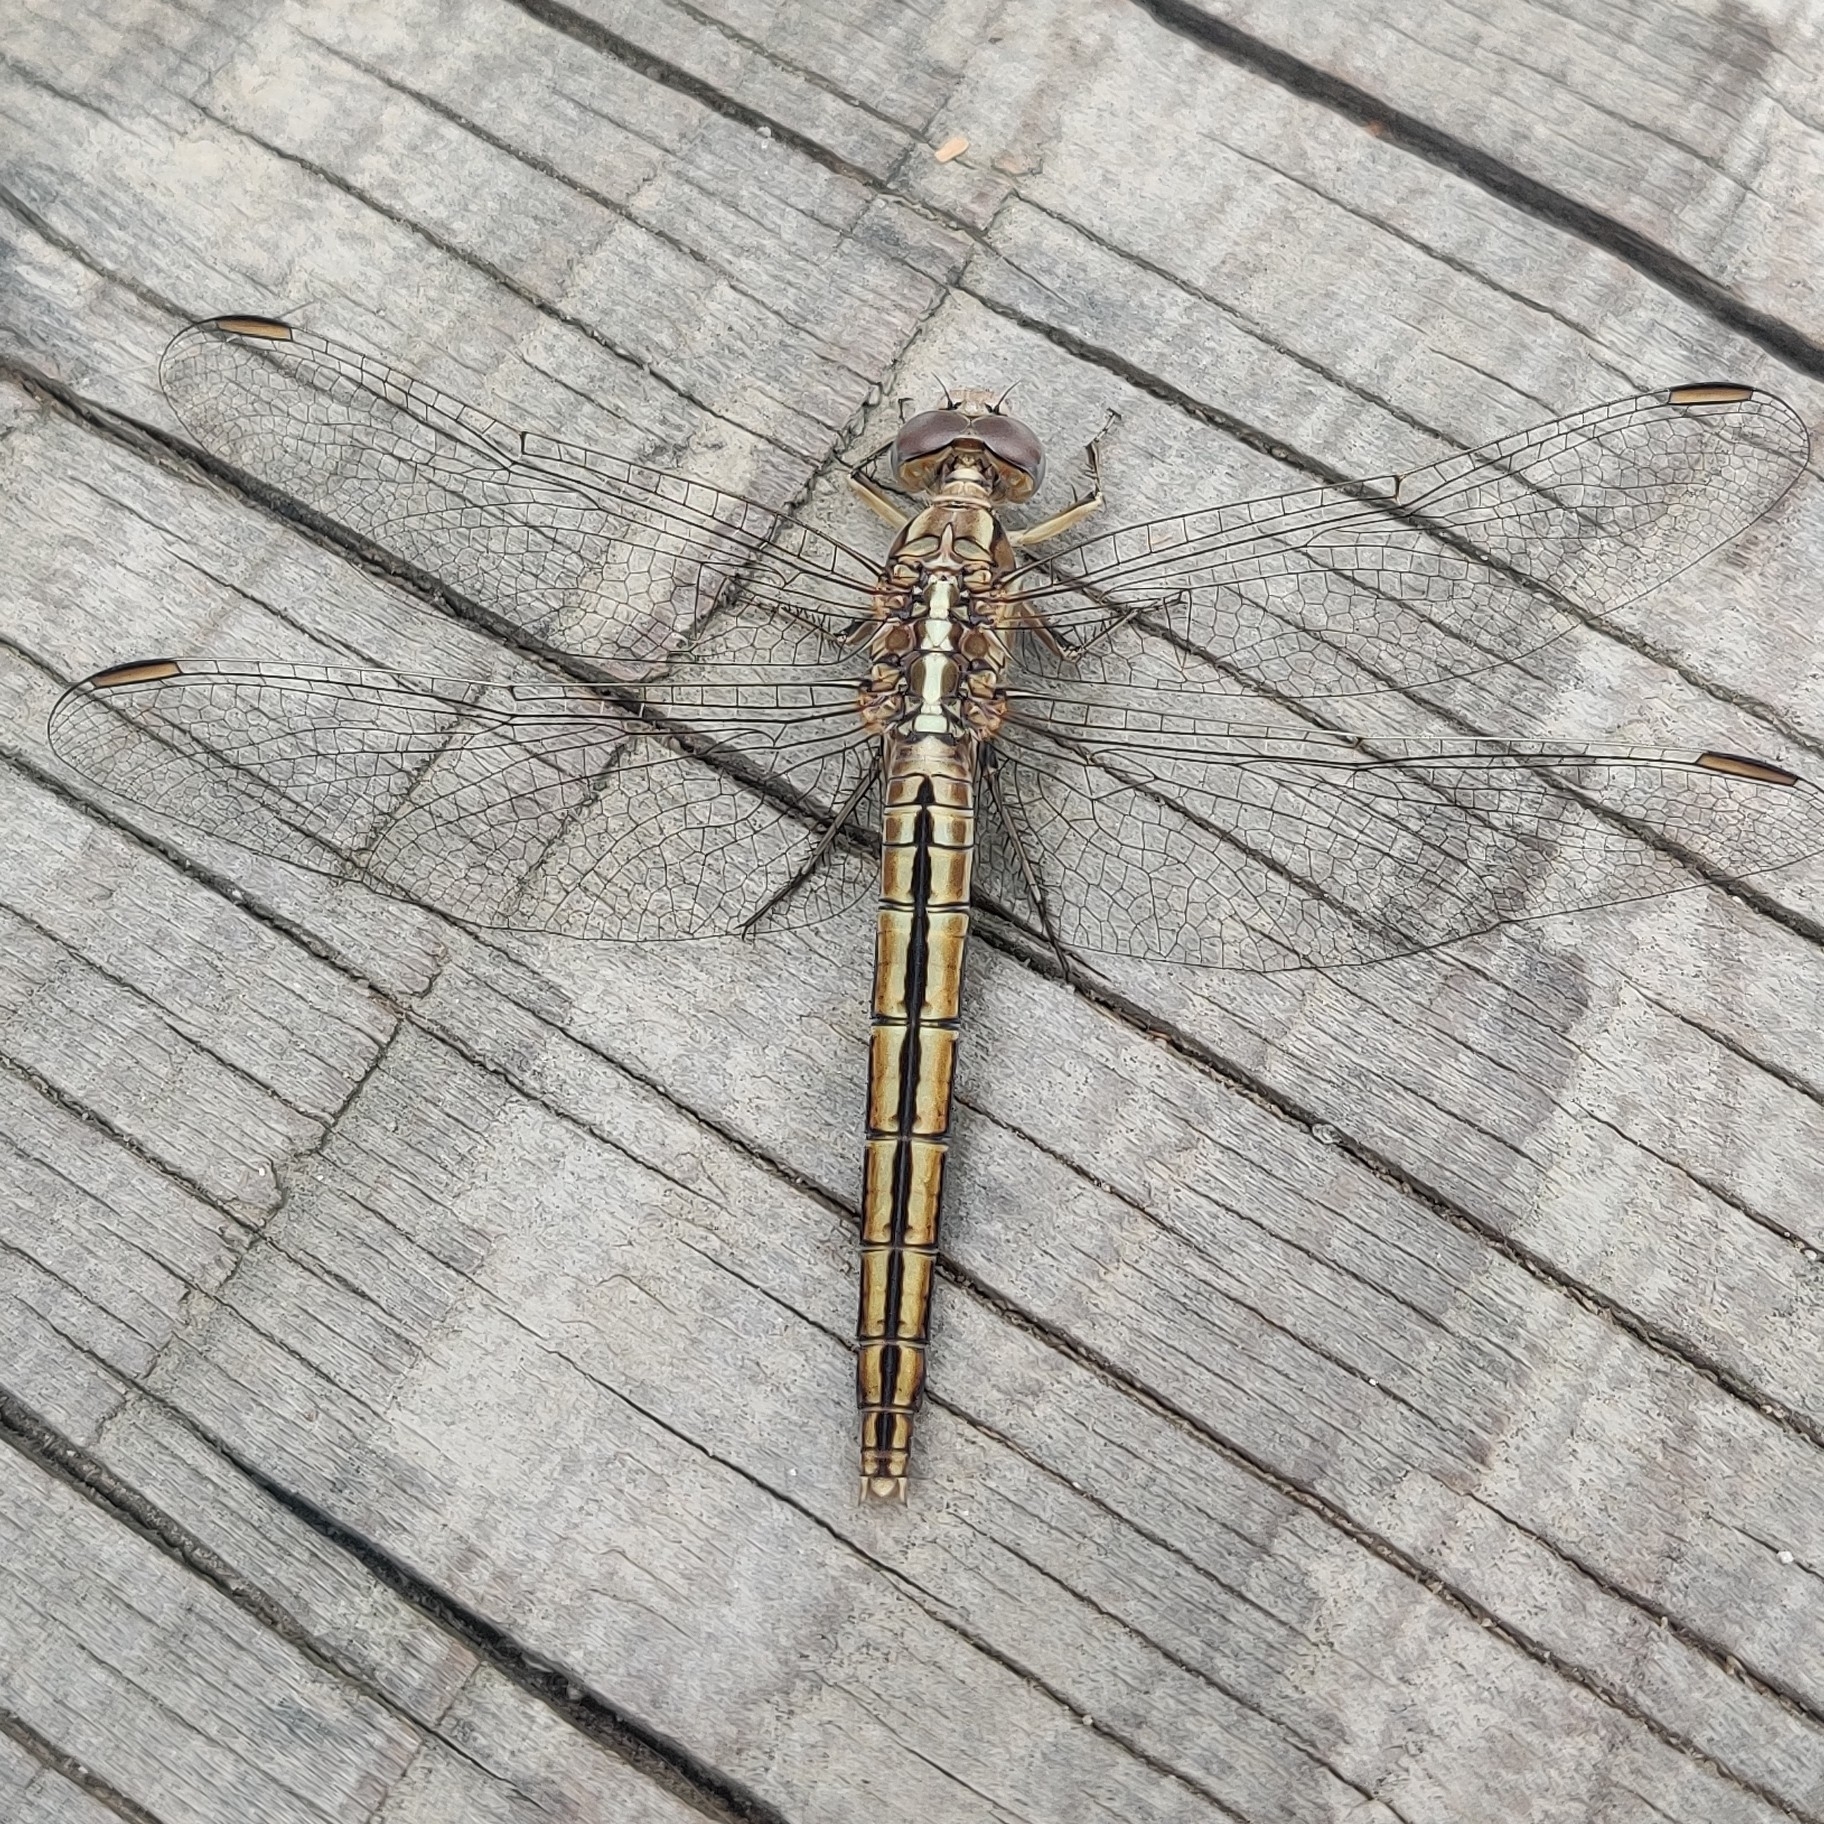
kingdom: Animalia
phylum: Arthropoda
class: Insecta
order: Odonata
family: Libellulidae
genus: Orthetrum
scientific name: Orthetrum taeniolatum
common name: Small skimmer
